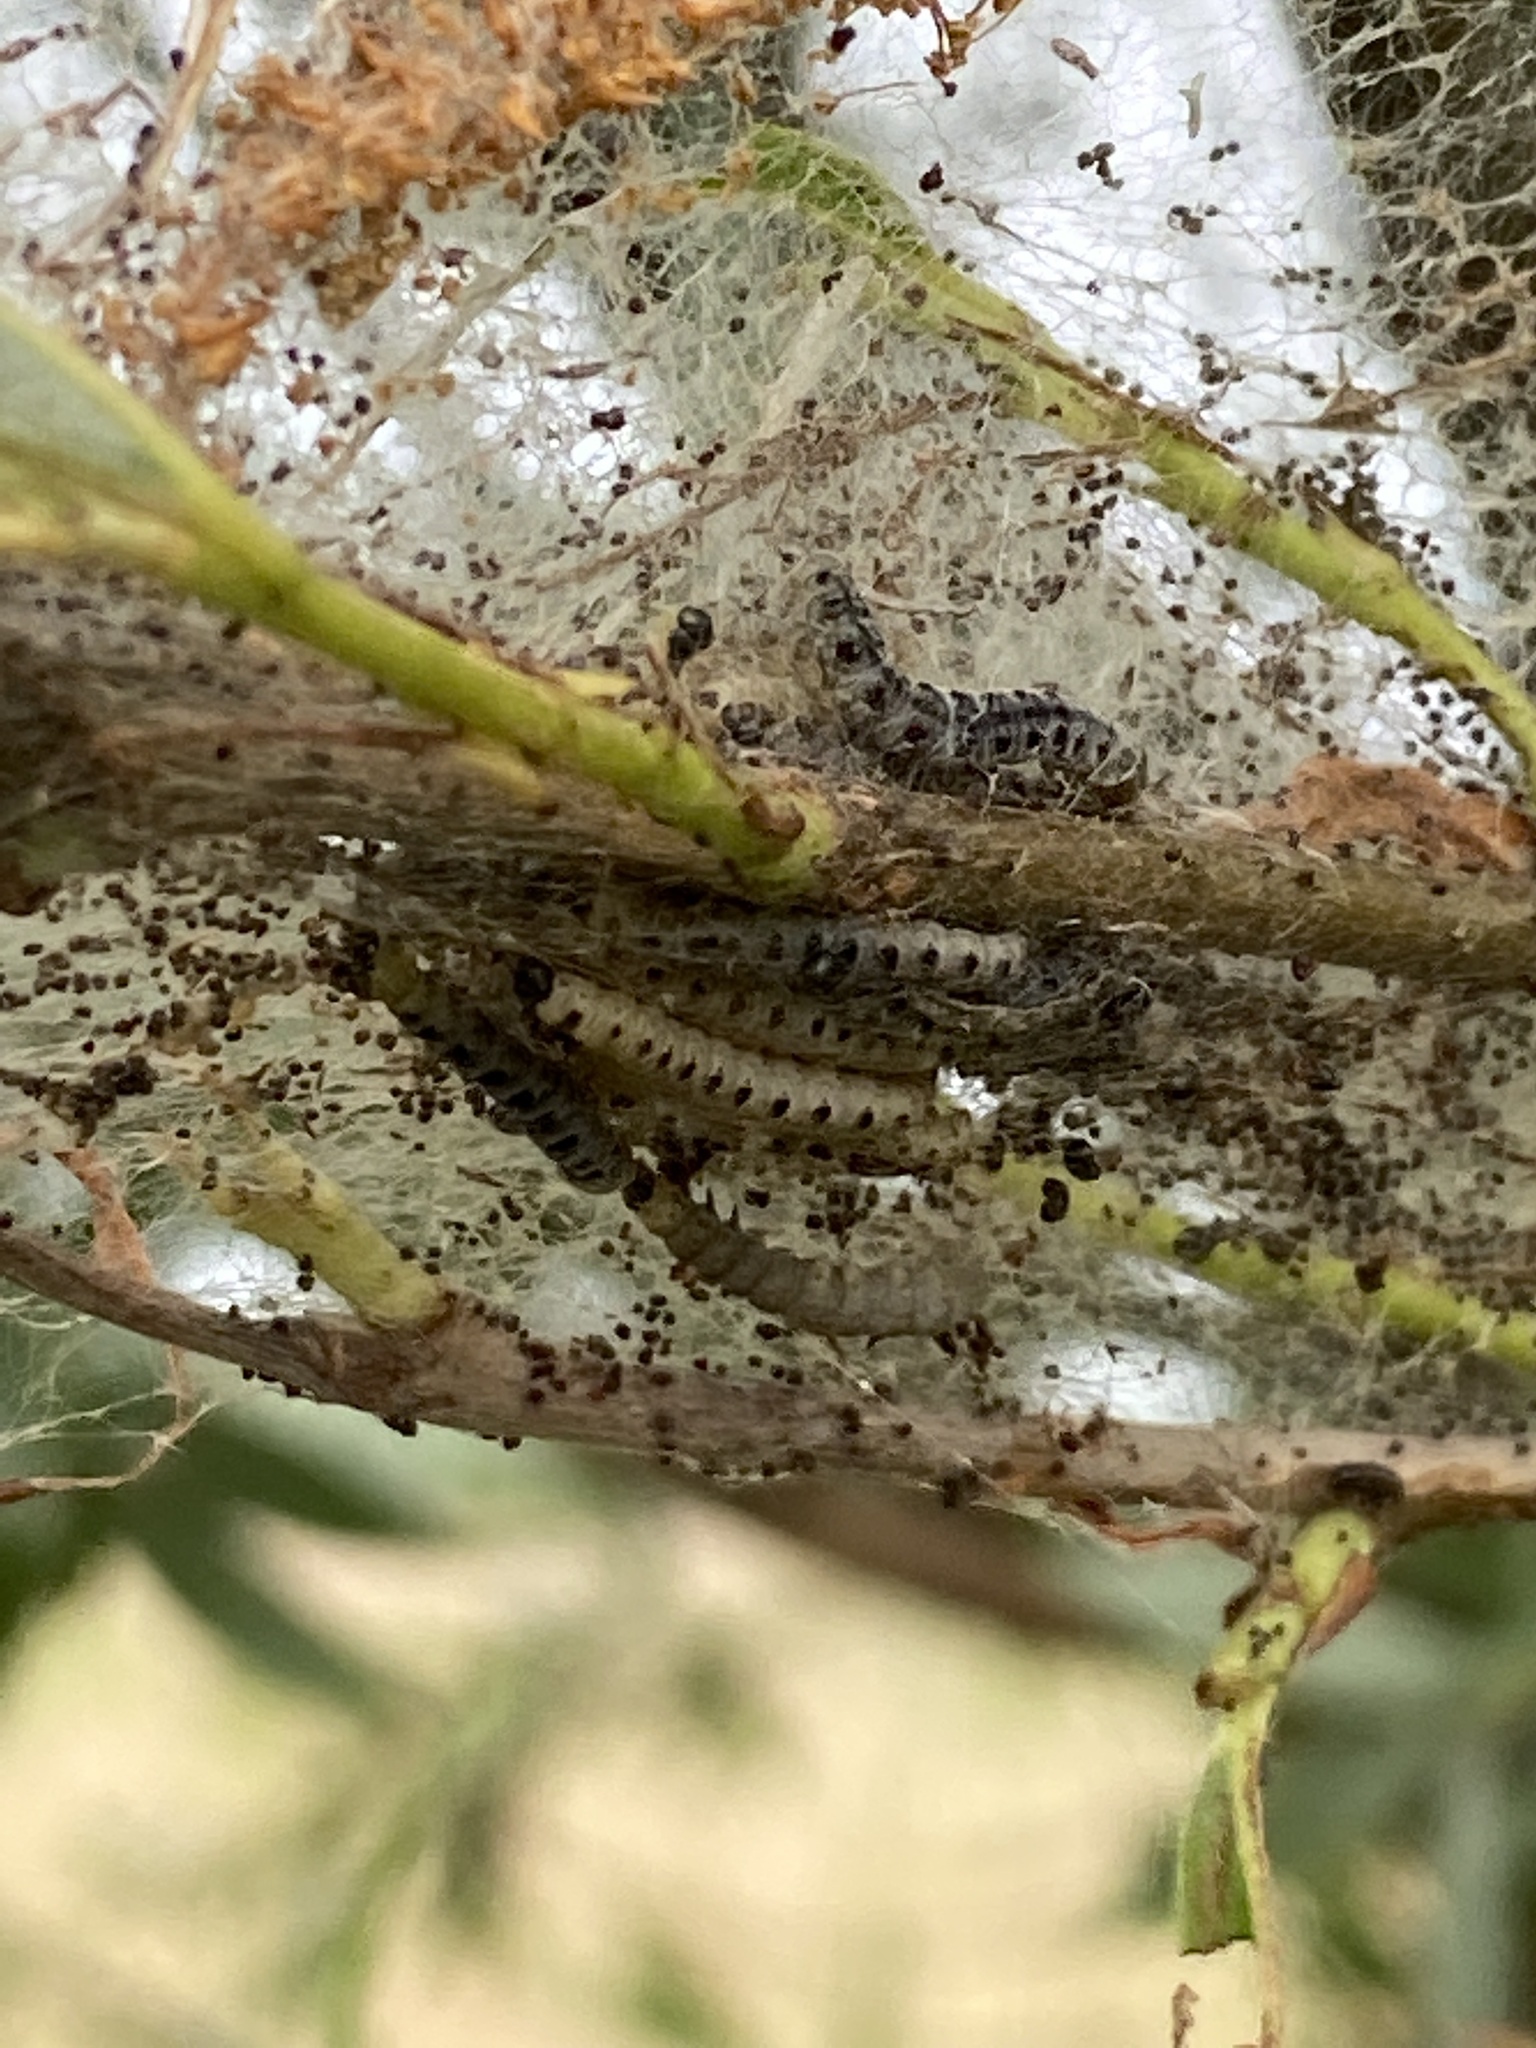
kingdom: Animalia
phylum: Arthropoda
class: Insecta
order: Lepidoptera
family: Yponomeutidae
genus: Yponomeuta
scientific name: Yponomeuta padella
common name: Orchard ermine
